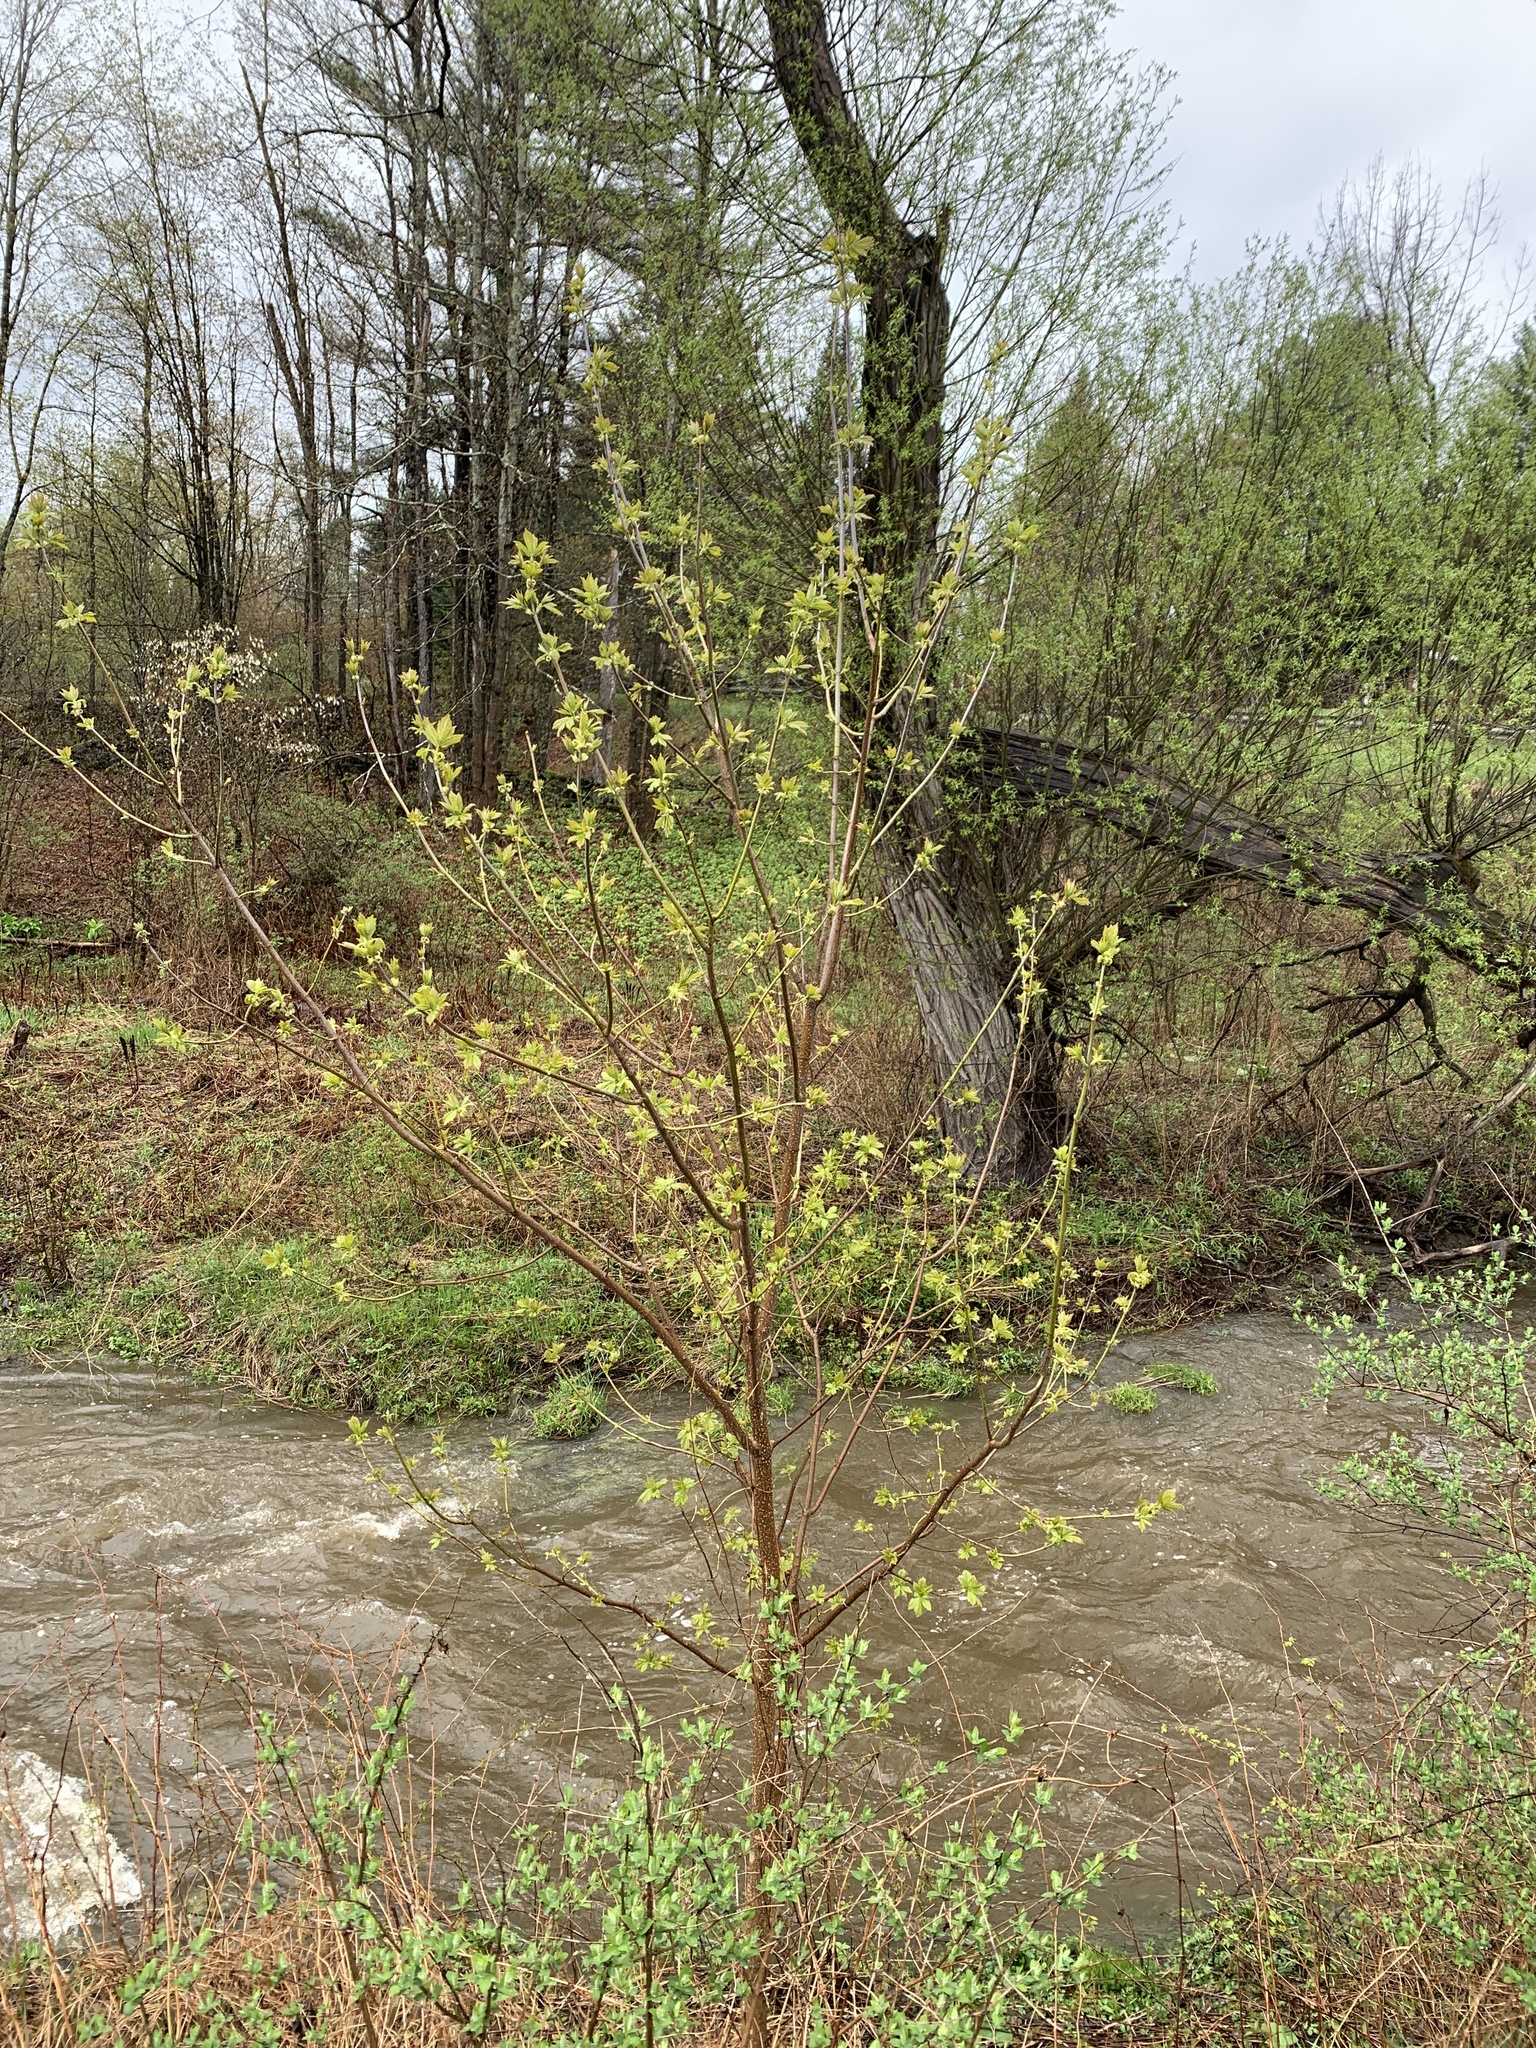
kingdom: Plantae
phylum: Tracheophyta
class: Magnoliopsida
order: Sapindales
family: Sapindaceae
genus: Acer
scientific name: Acer negundo
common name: Ashleaf maple
